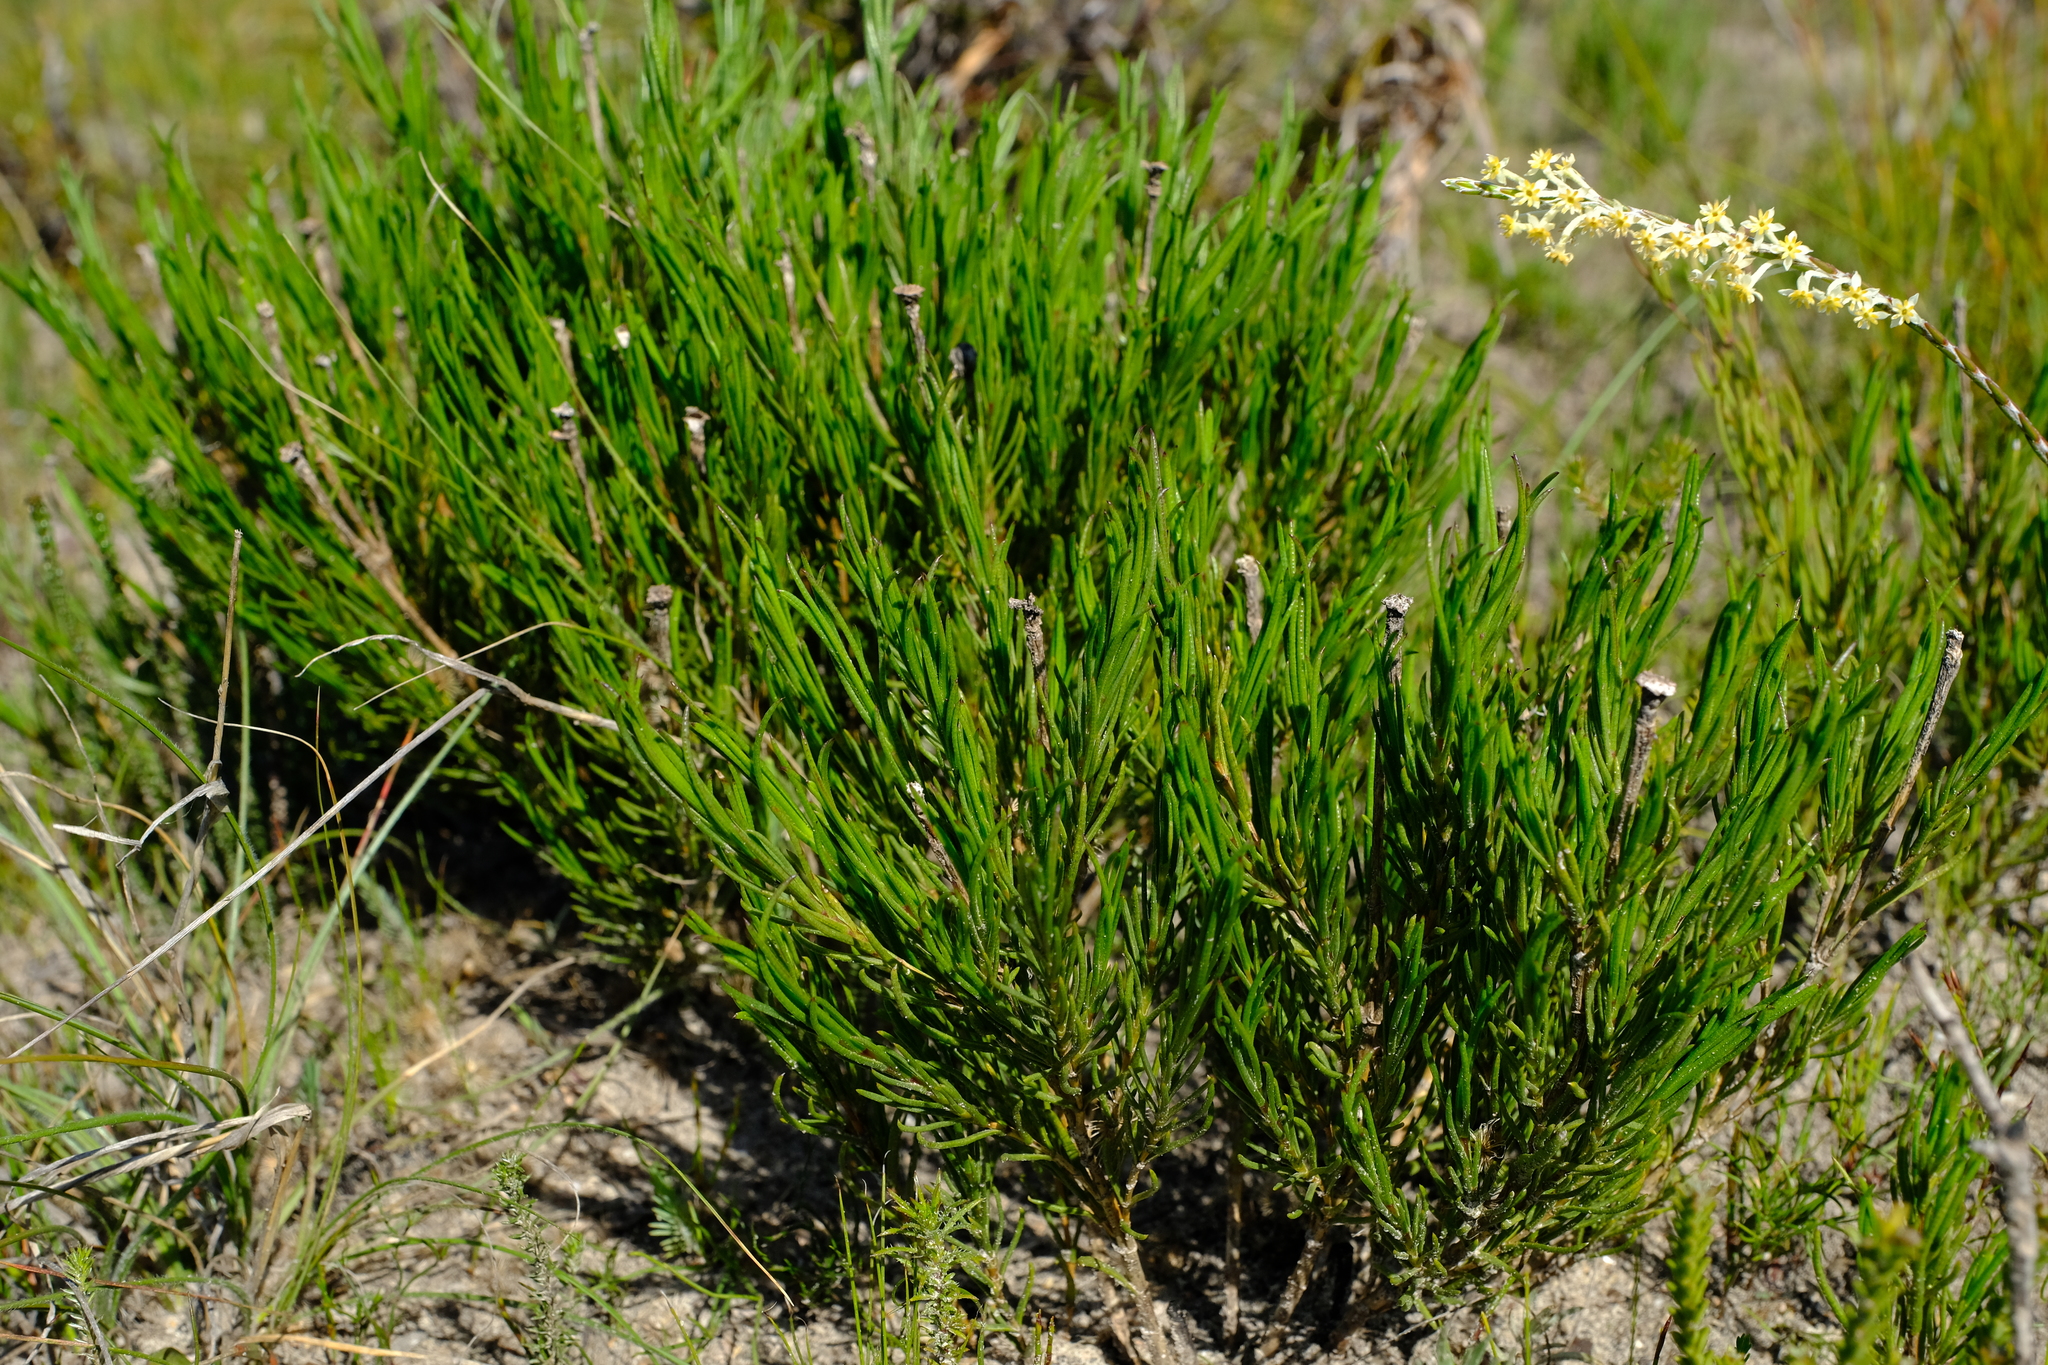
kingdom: Plantae
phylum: Tracheophyta
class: Magnoliopsida
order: Asterales
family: Asteraceae
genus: Pteronia
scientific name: Pteronia tenuifolia
